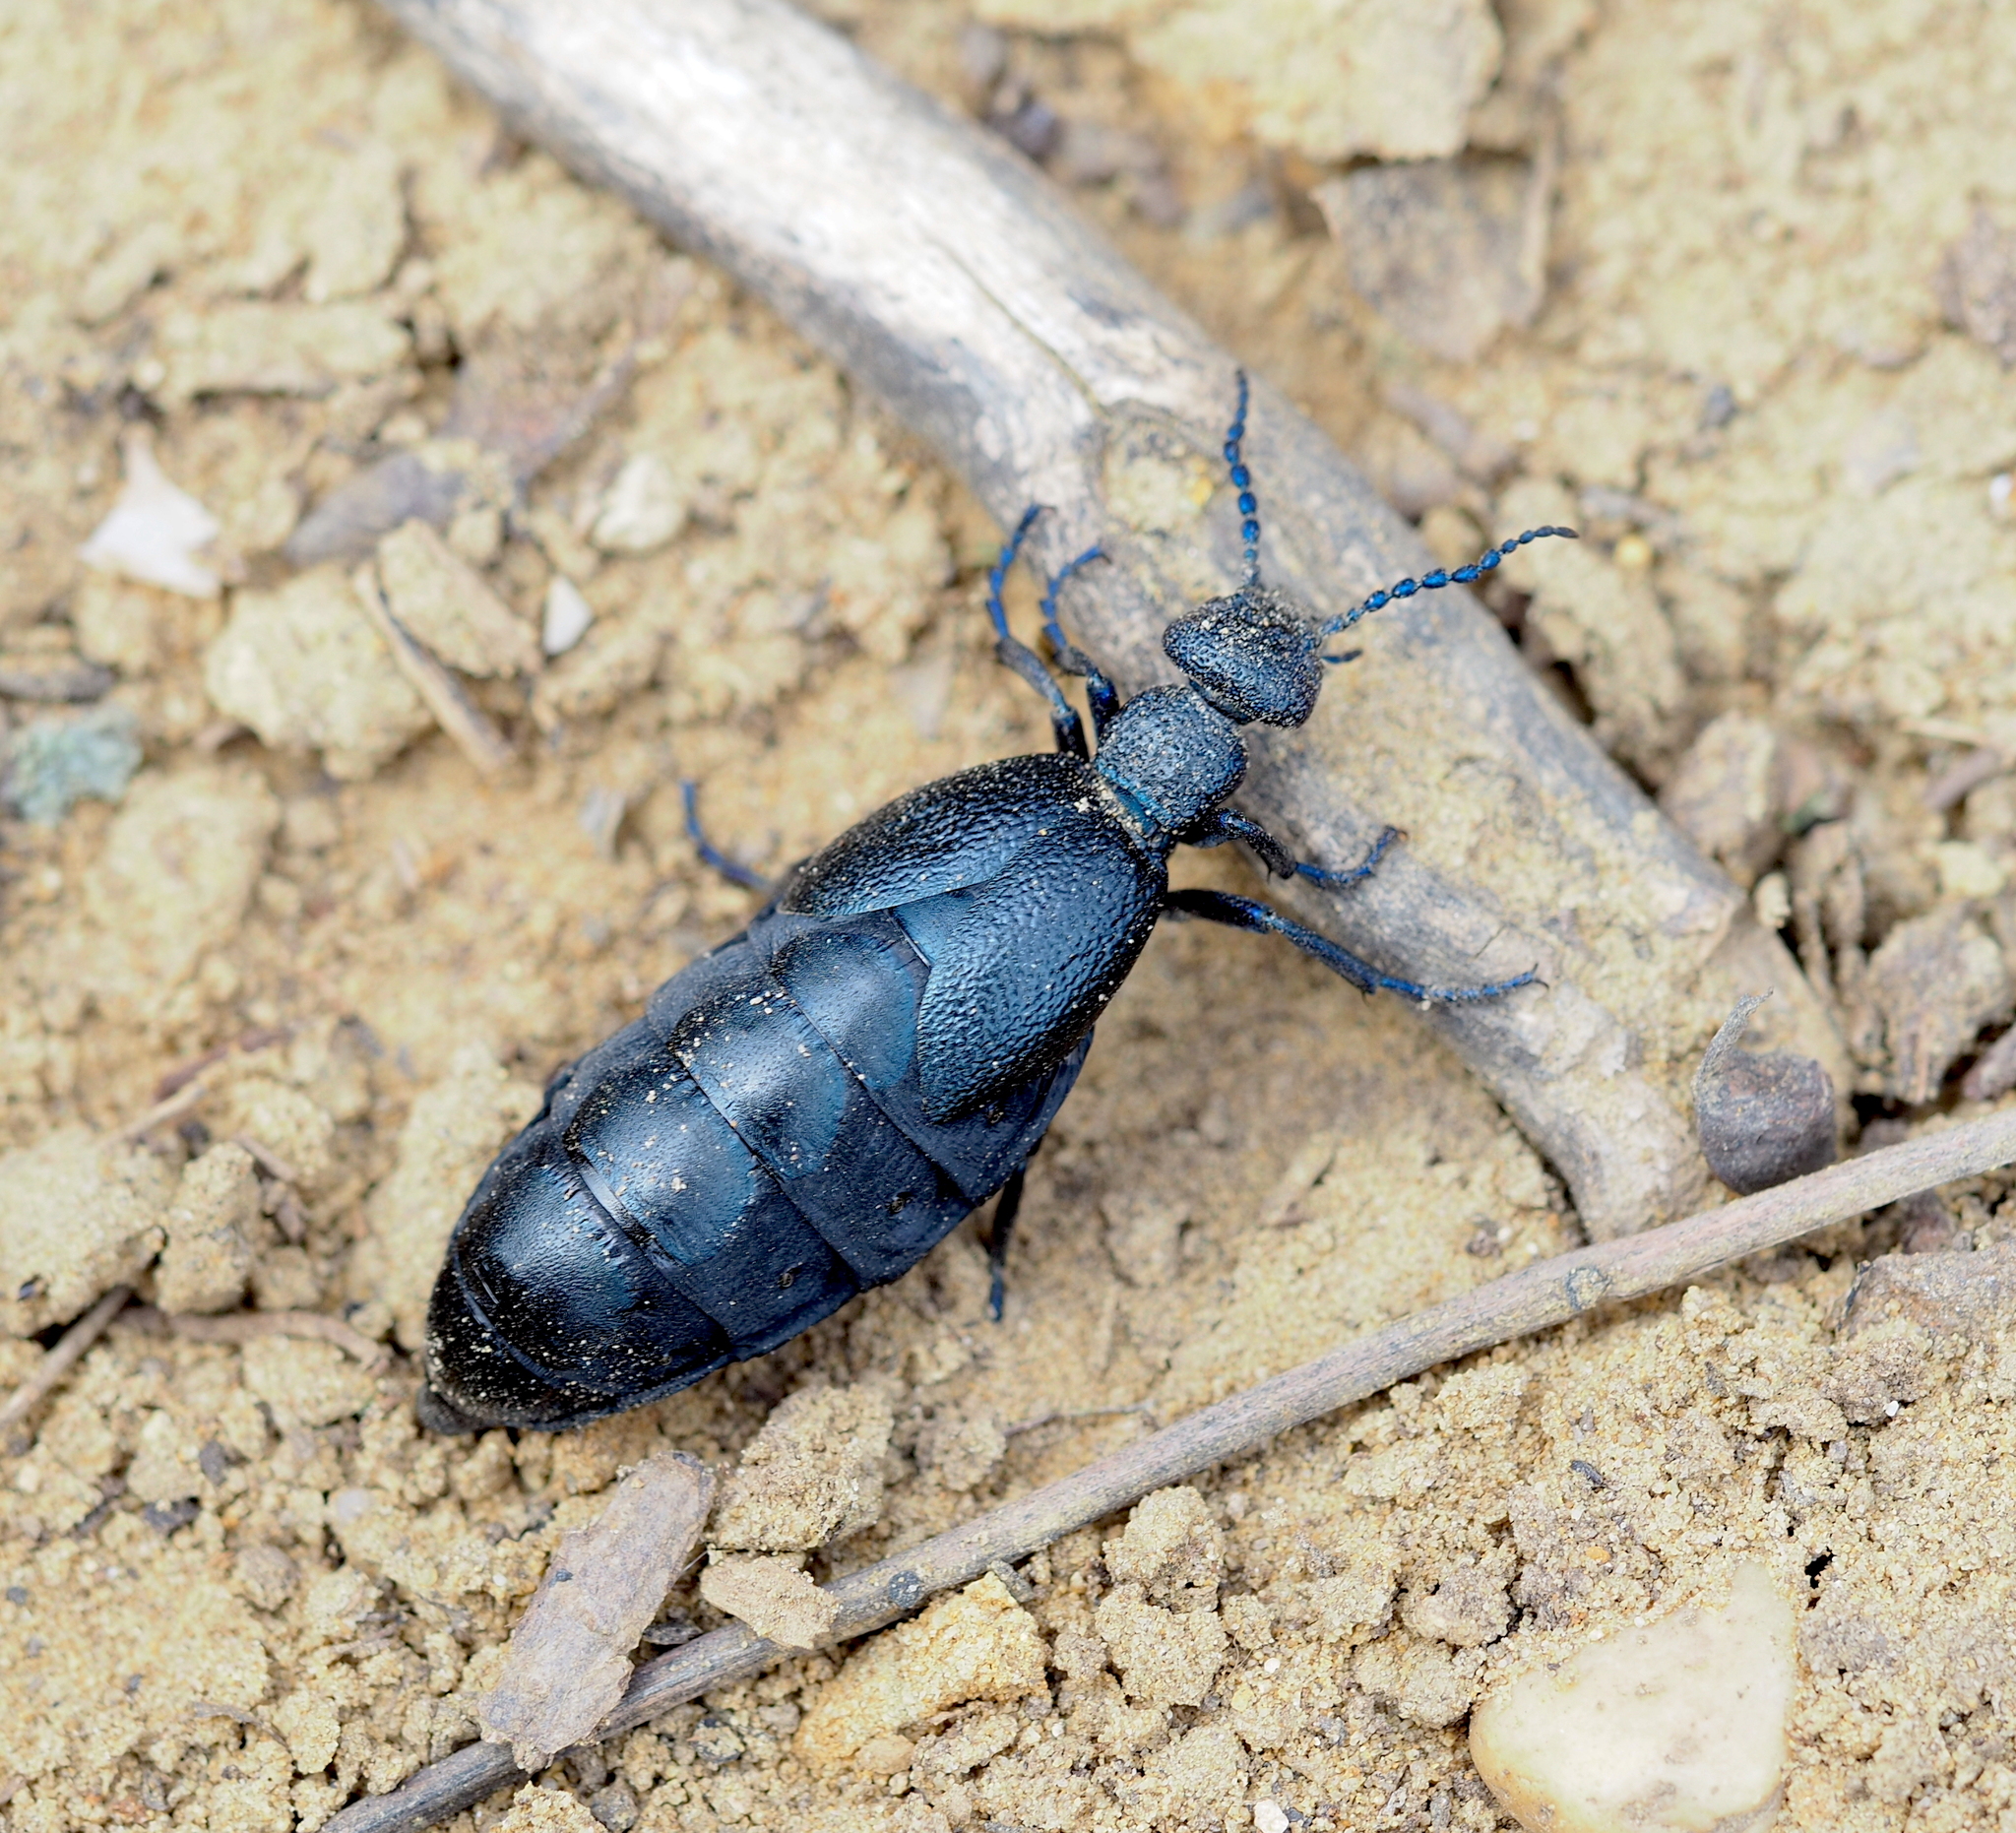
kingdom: Animalia
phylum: Arthropoda
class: Insecta
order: Coleoptera
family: Meloidae
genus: Meloe
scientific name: Meloe proscarabaeus
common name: Black oil-beetle
